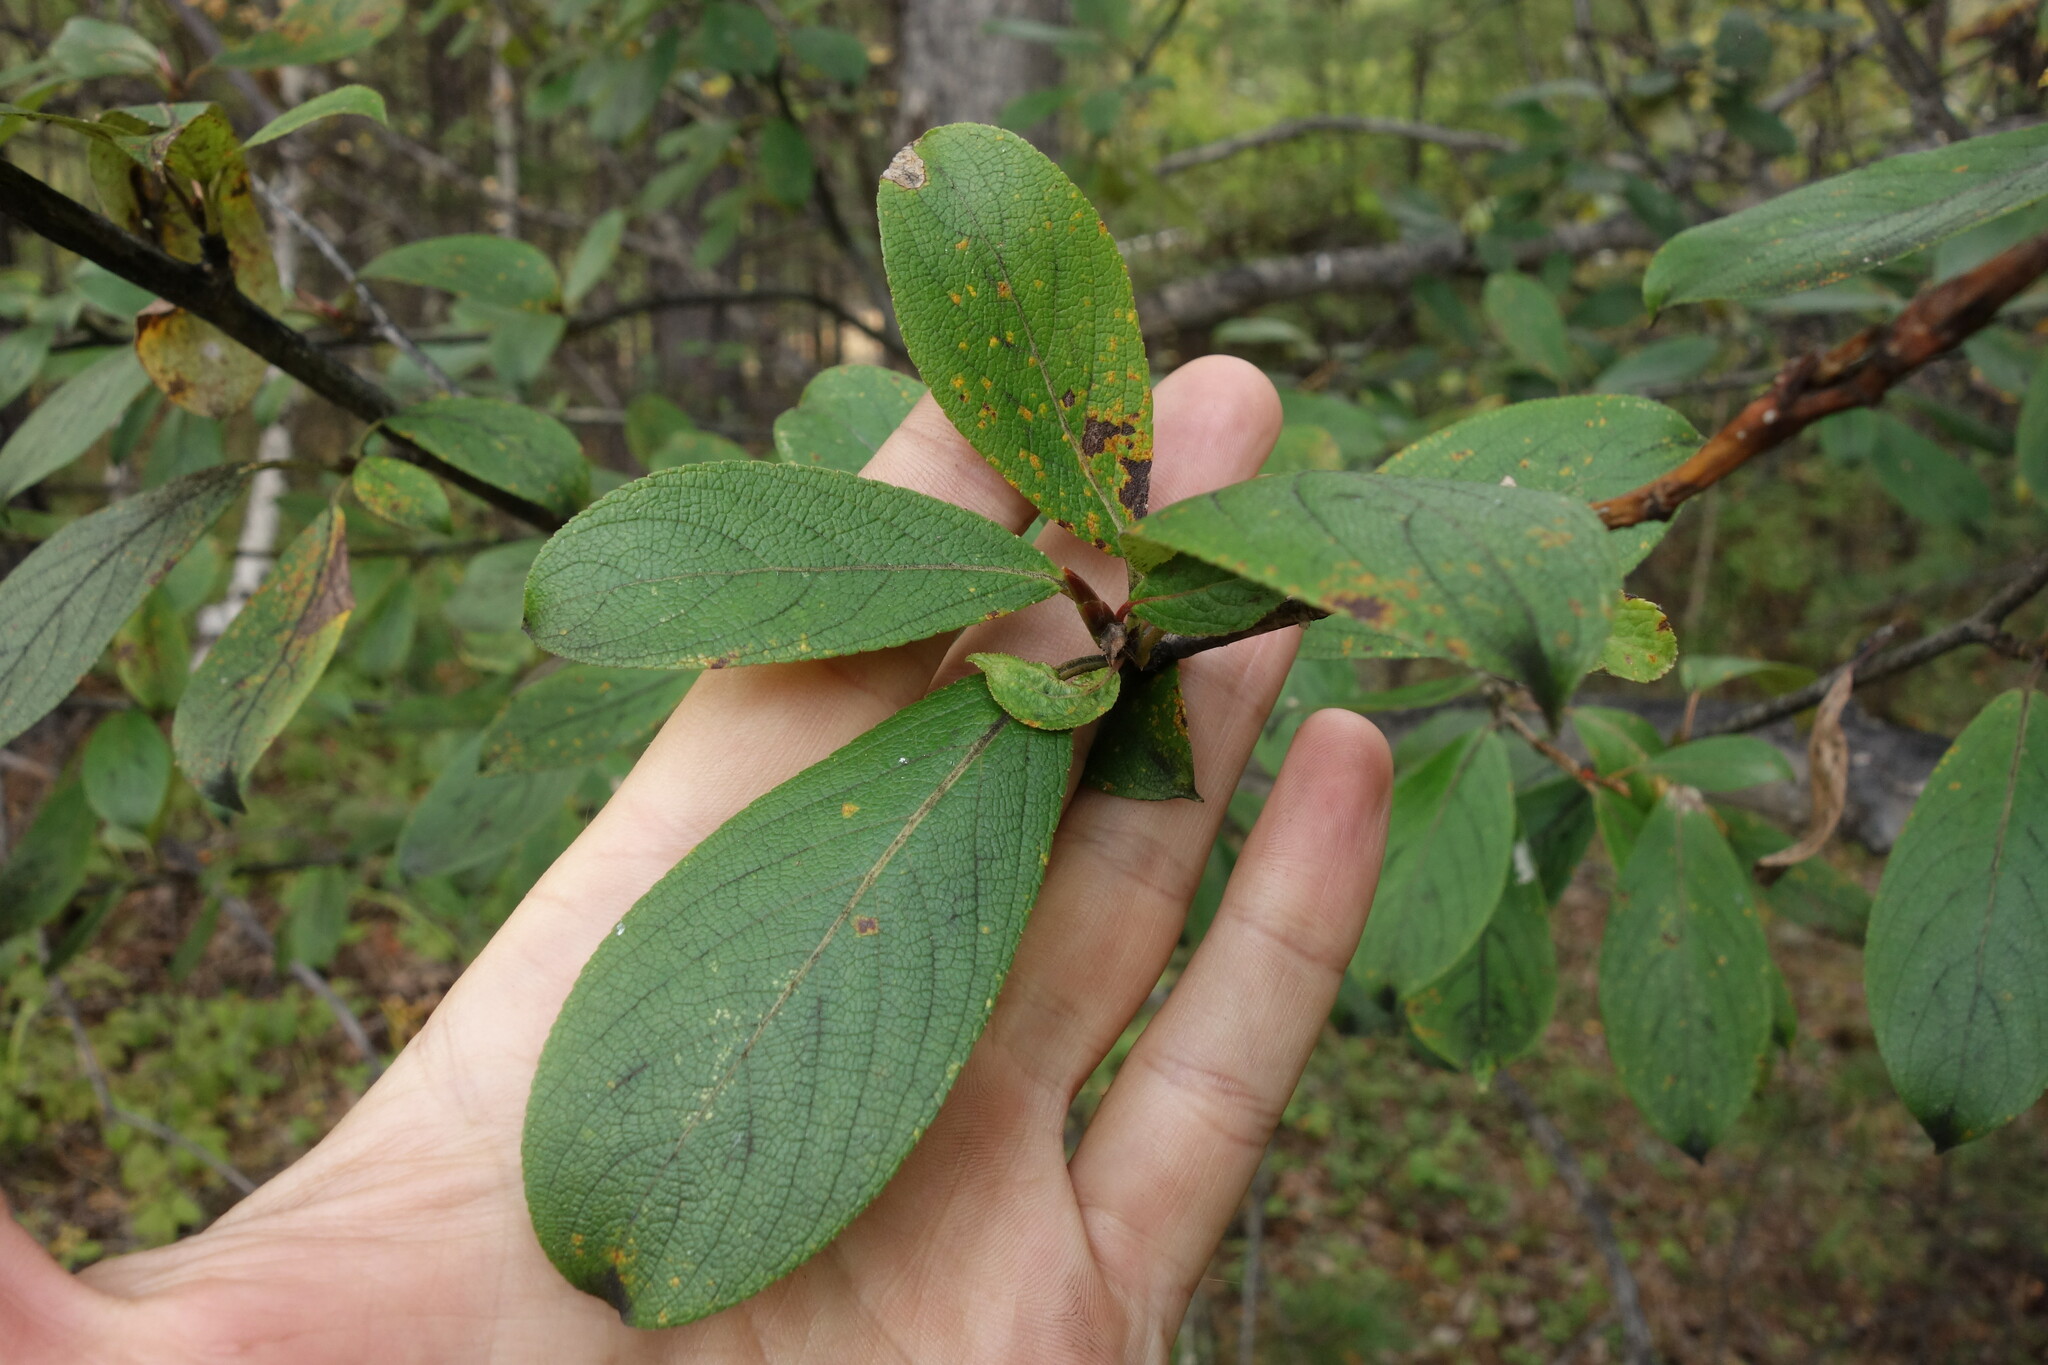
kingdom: Plantae
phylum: Tracheophyta
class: Magnoliopsida
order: Malpighiales
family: Salicaceae
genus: Populus
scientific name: Populus suaveolens
